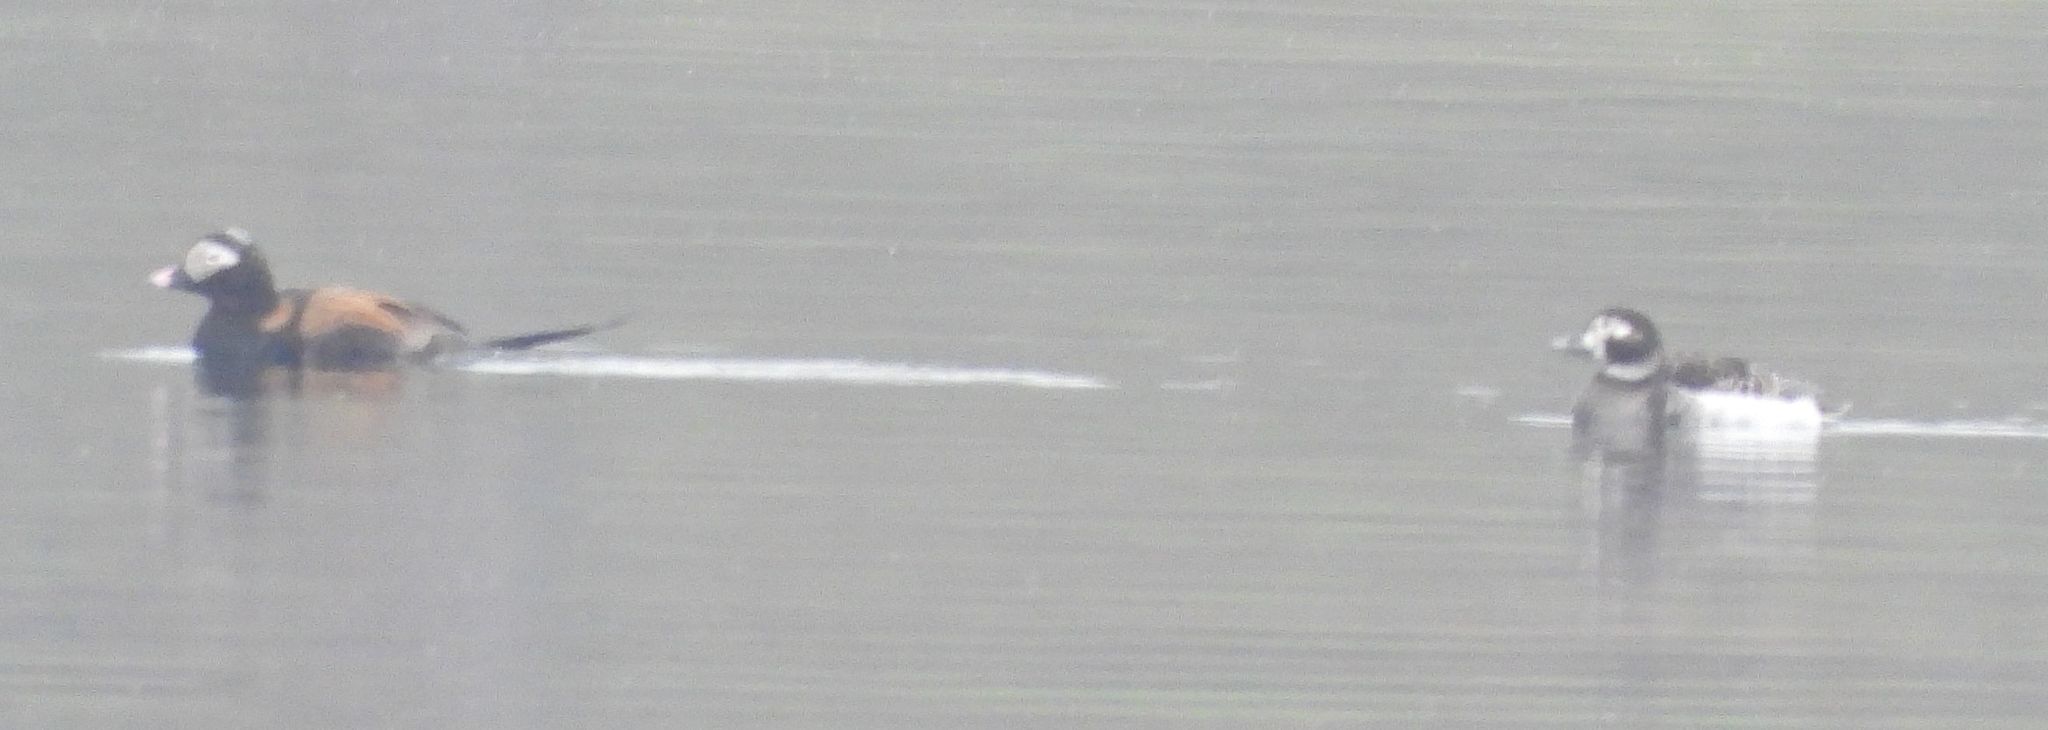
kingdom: Animalia
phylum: Chordata
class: Aves
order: Anseriformes
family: Anatidae
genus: Clangula
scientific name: Clangula hyemalis
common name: Long-tailed duck
